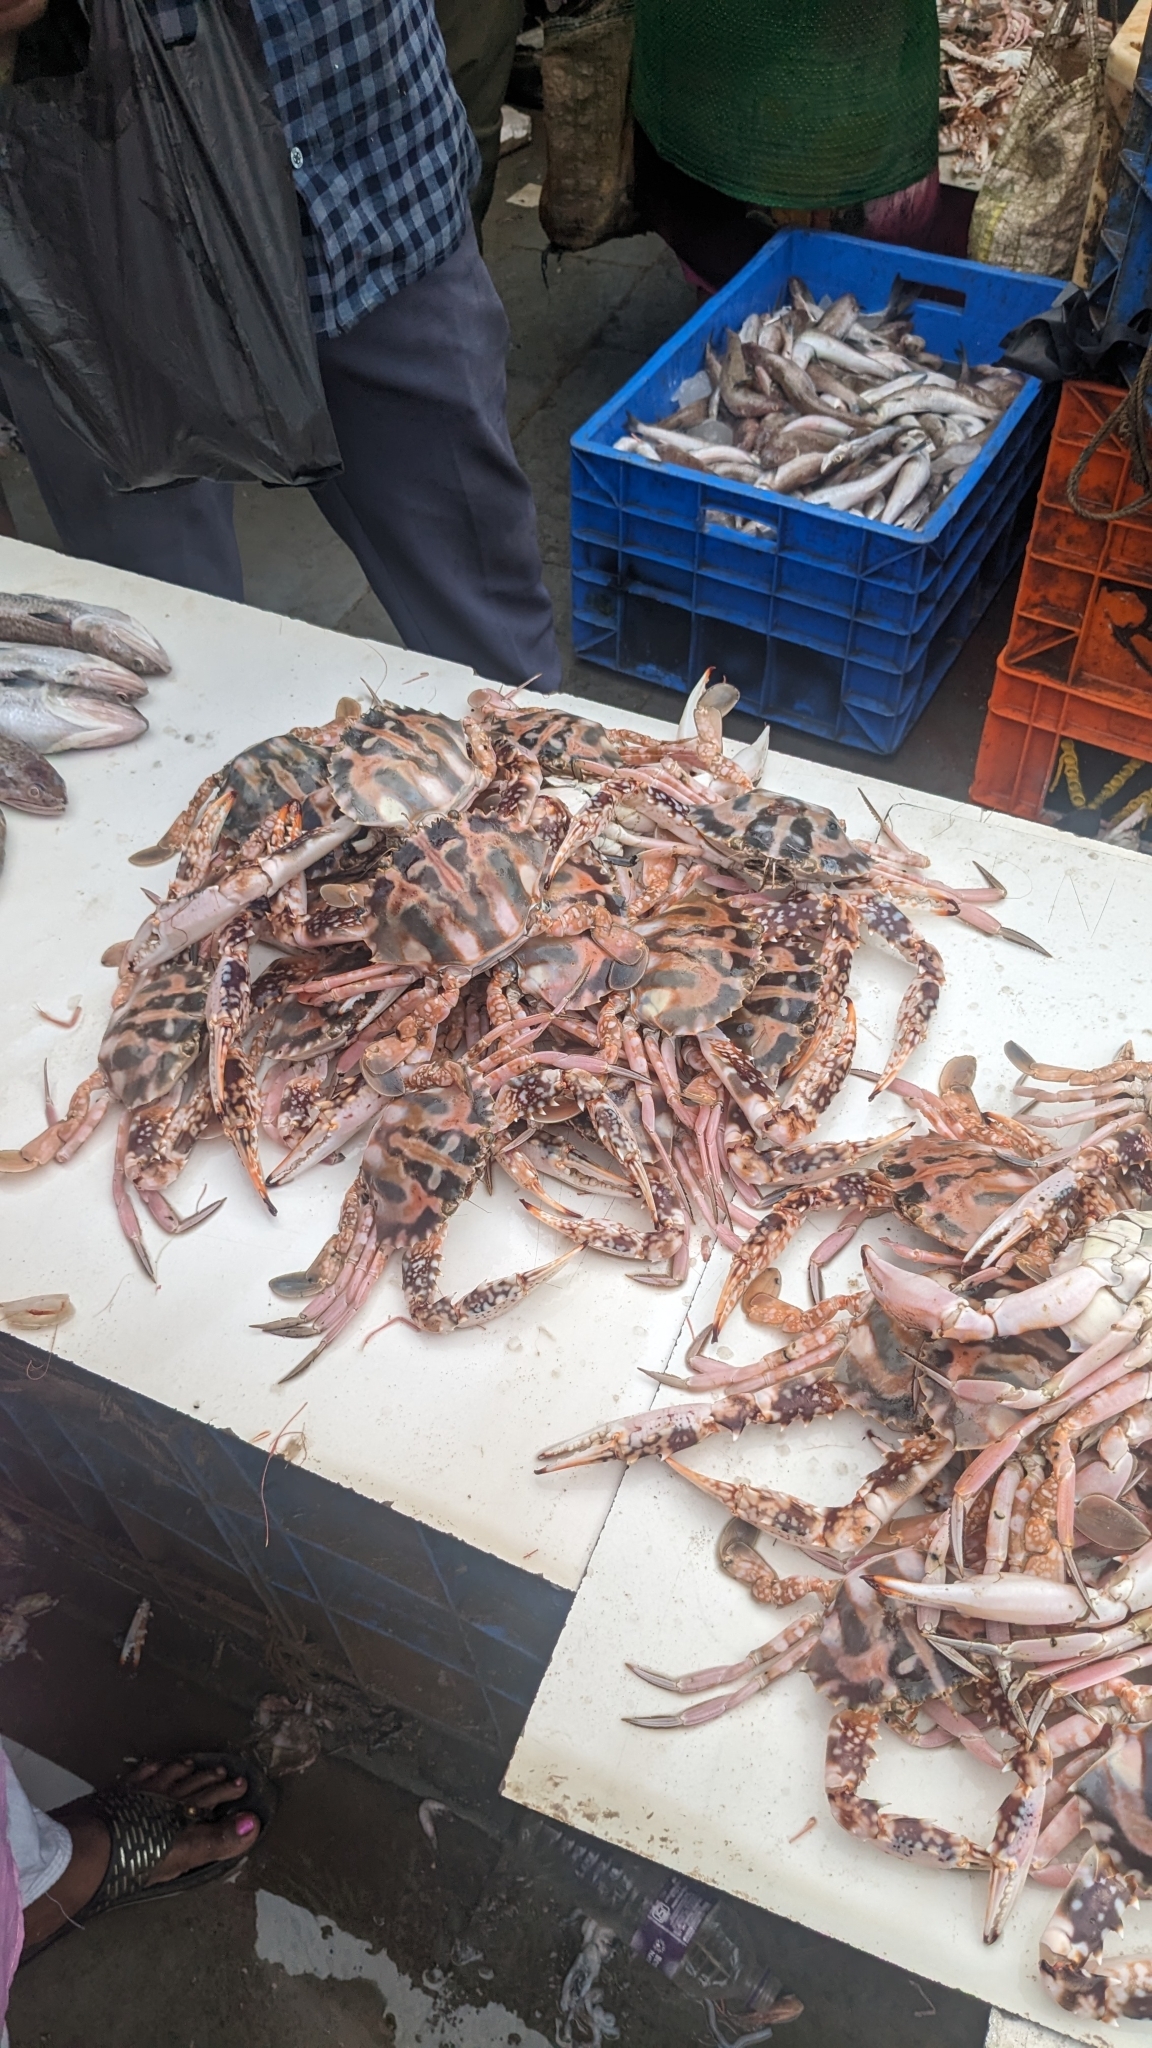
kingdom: Animalia
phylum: Arthropoda
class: Malacostraca
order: Decapoda
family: Portunidae
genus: Charybdis
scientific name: Charybdis feriata
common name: Striped swimming crab
